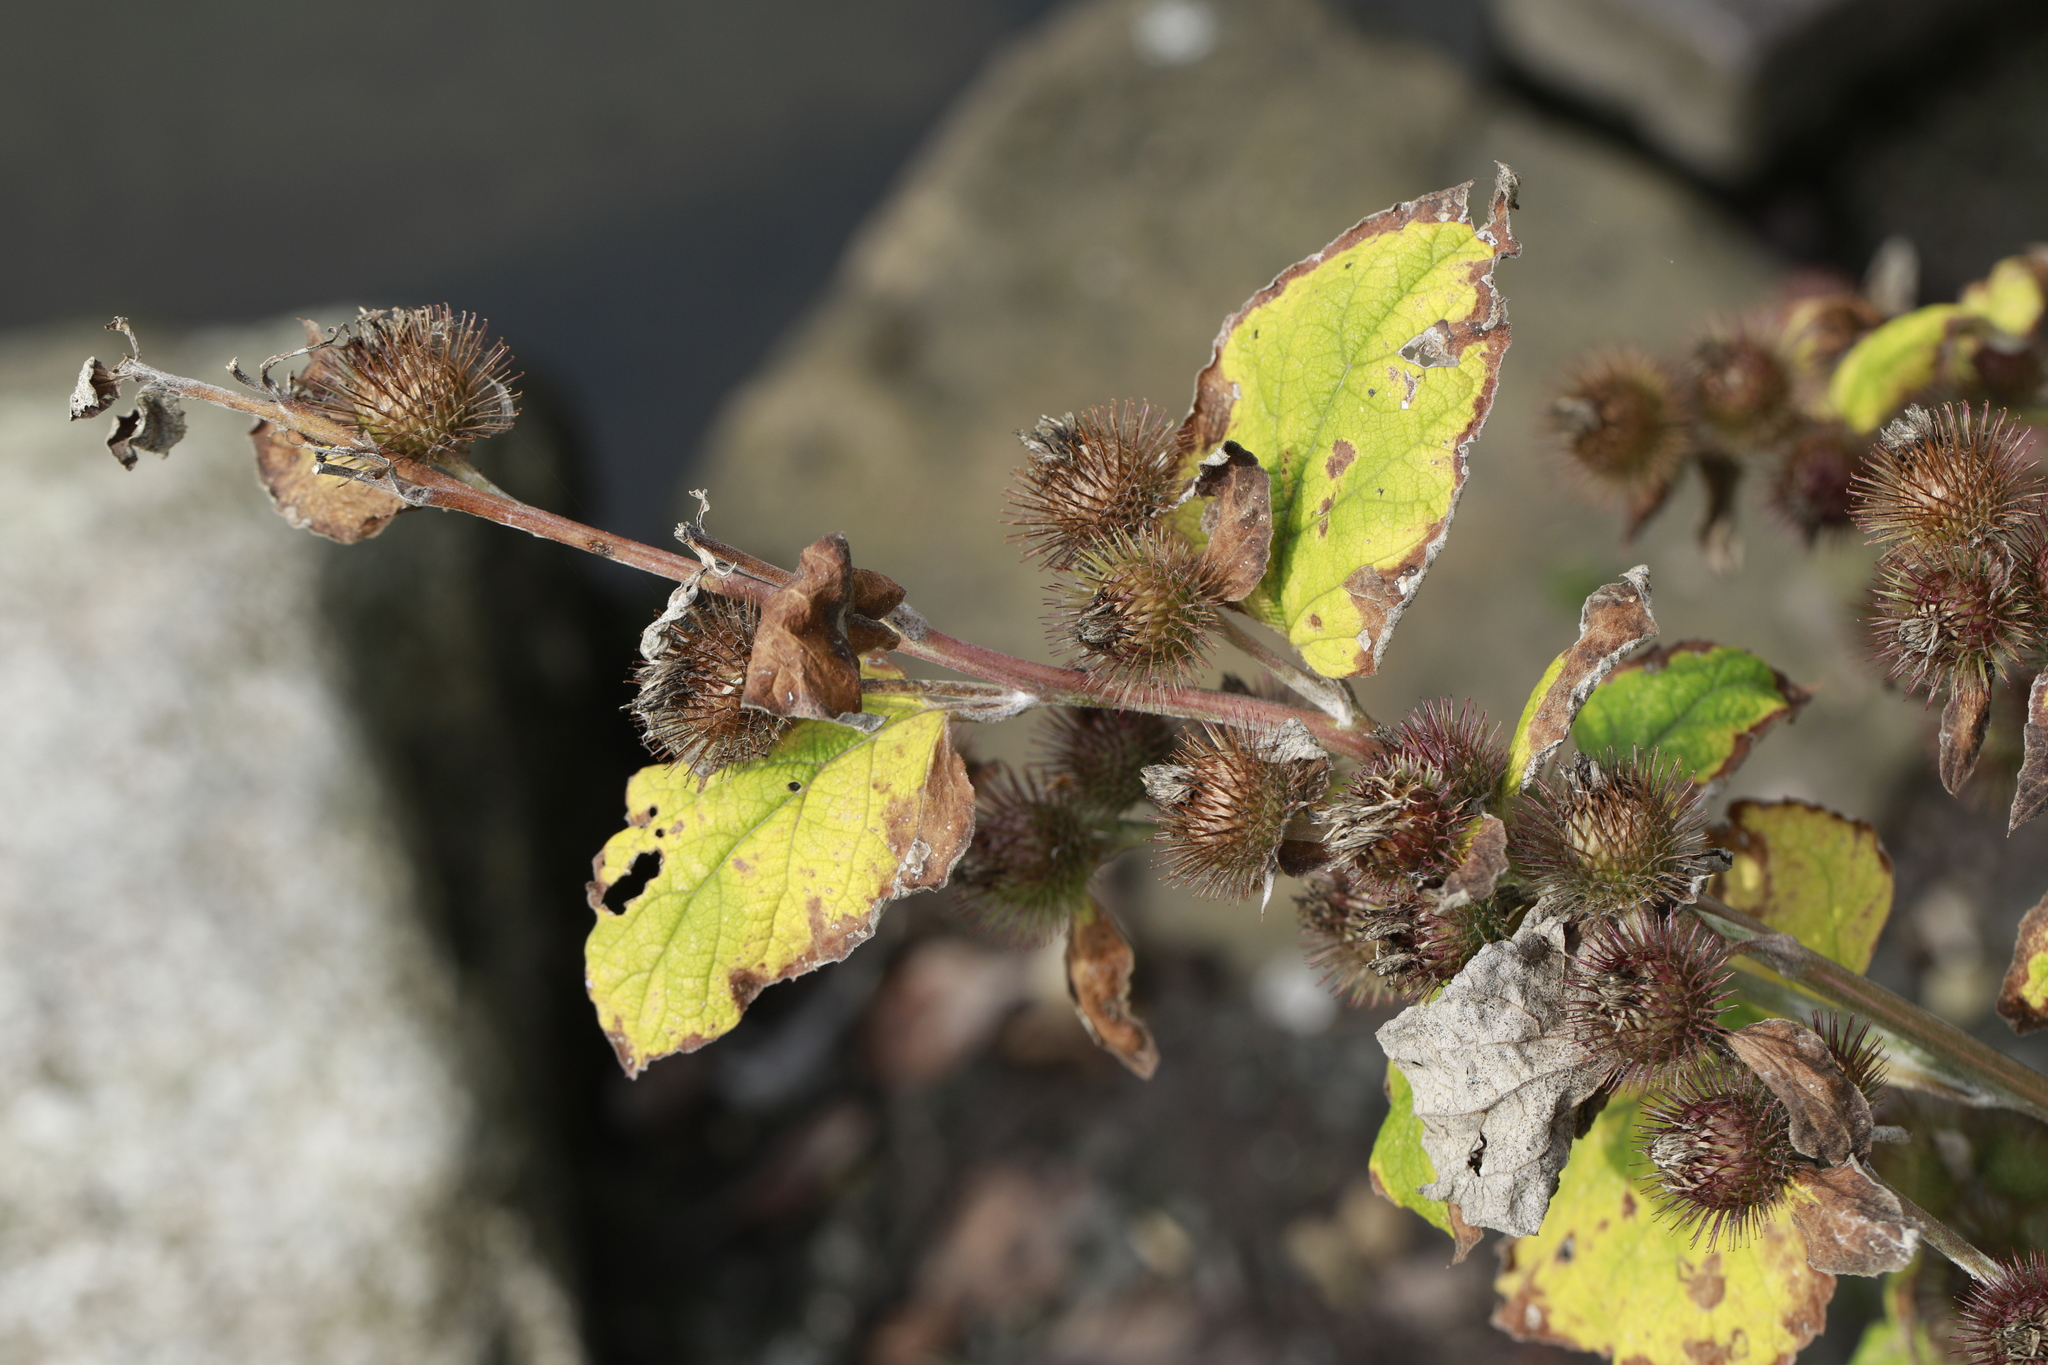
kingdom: Plantae
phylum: Tracheophyta
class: Magnoliopsida
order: Asterales
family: Asteraceae
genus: Arctium
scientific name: Arctium minus
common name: Lesser burdock
